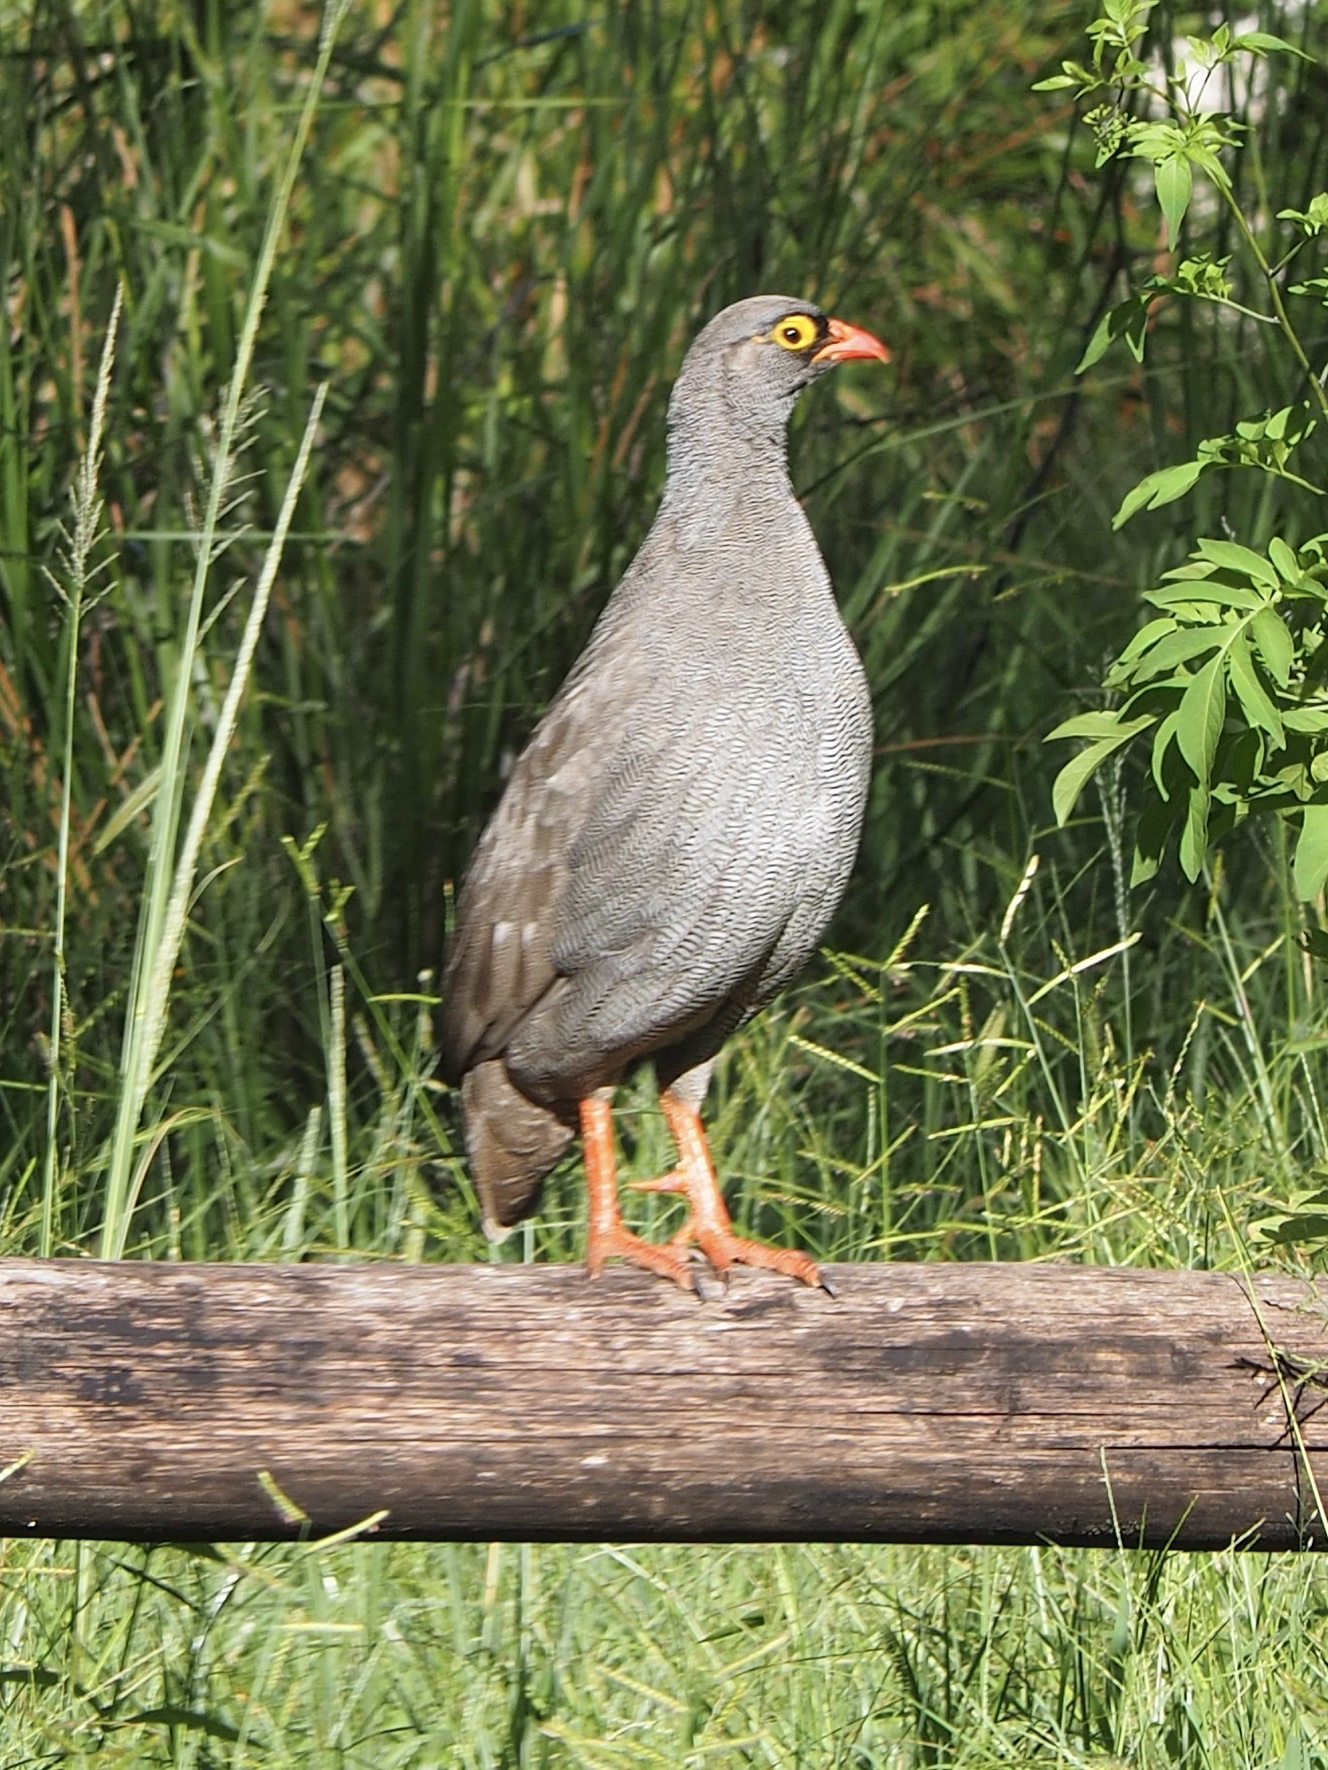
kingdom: Animalia
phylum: Chordata
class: Aves
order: Galliformes
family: Phasianidae
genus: Pternistis
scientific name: Pternistis adspersus
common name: Red-billed spurfowl
